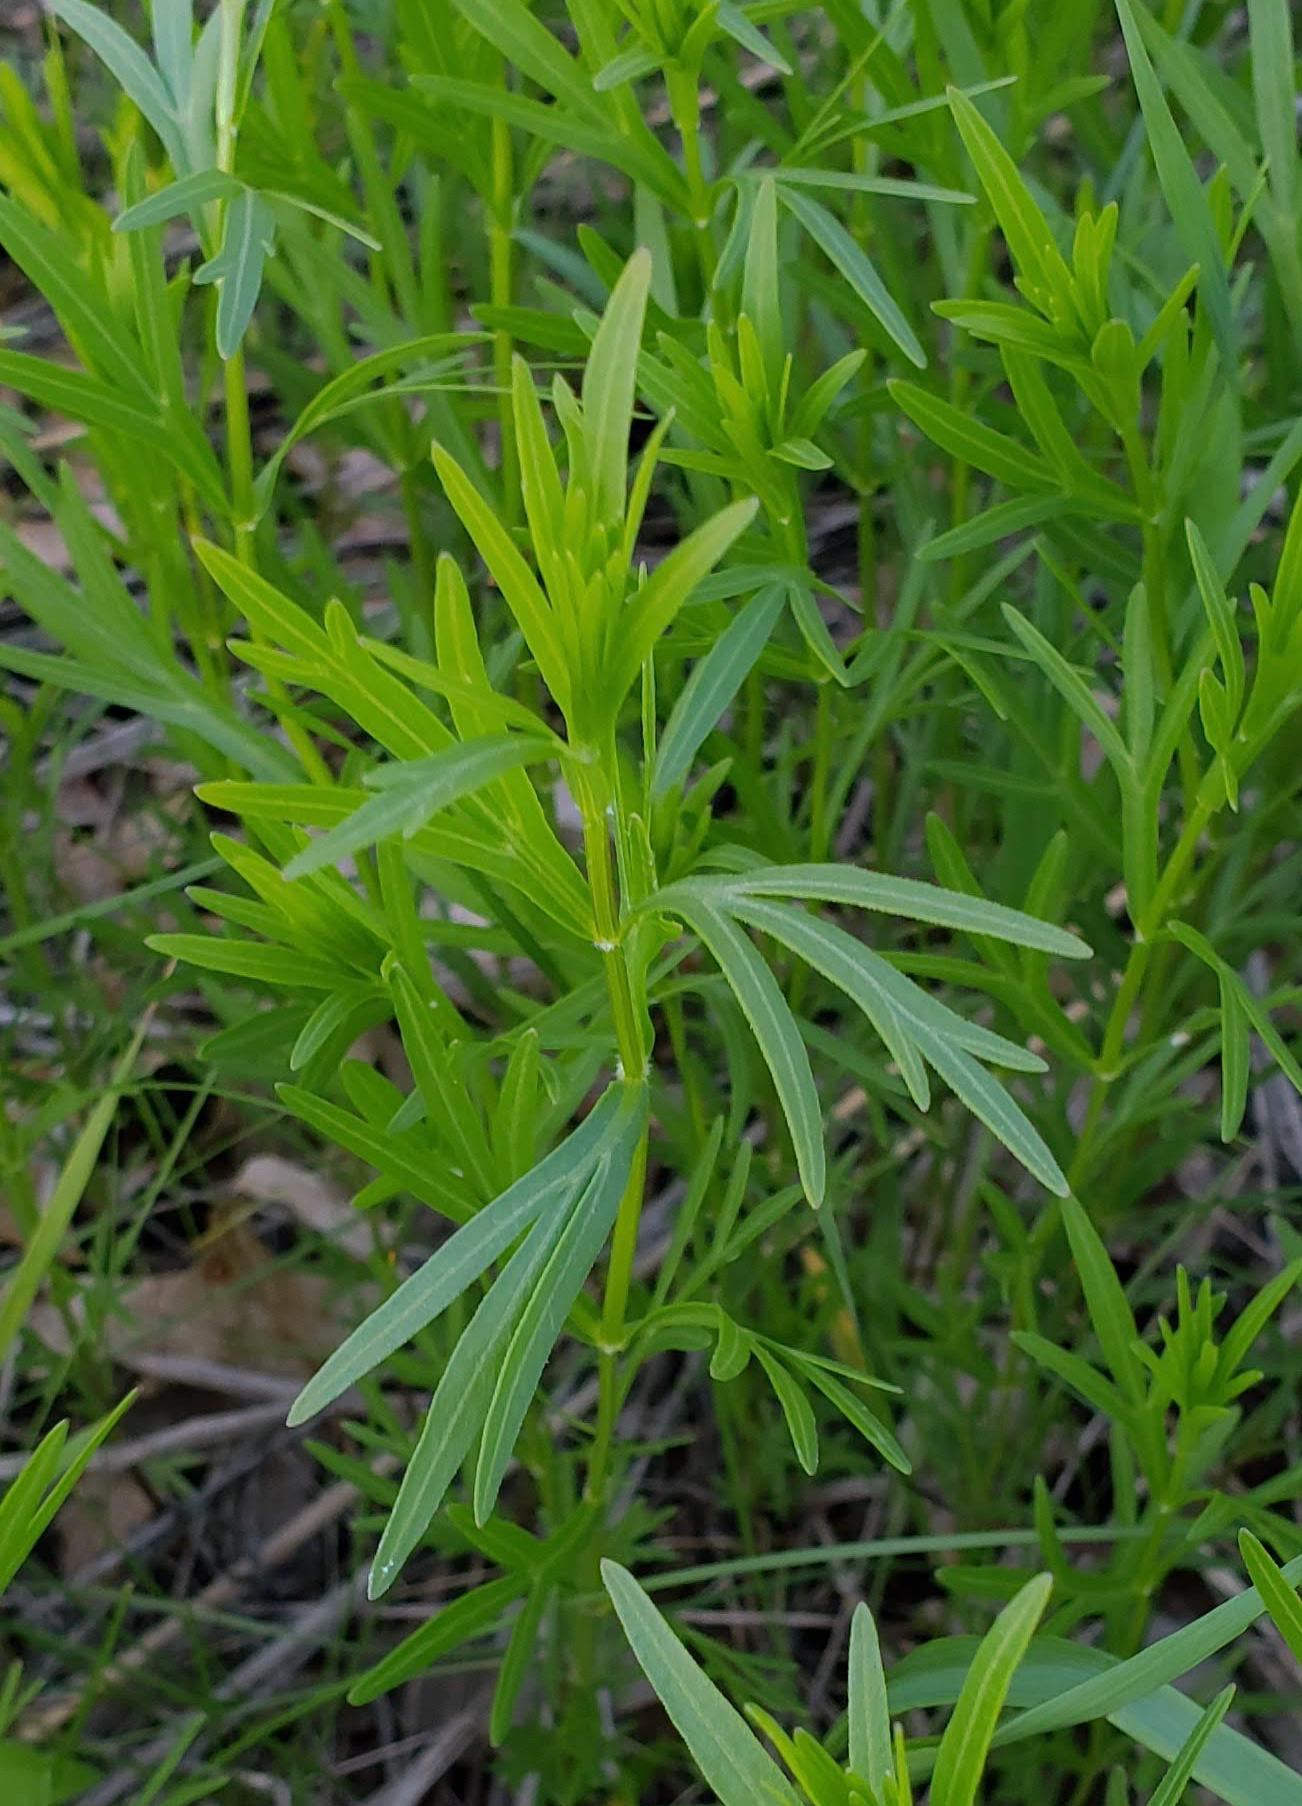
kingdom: Plantae
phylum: Tracheophyta
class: Magnoliopsida
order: Asterales
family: Asteraceae
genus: Coreopsis
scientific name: Coreopsis palmata
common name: Prairie coreopsis
